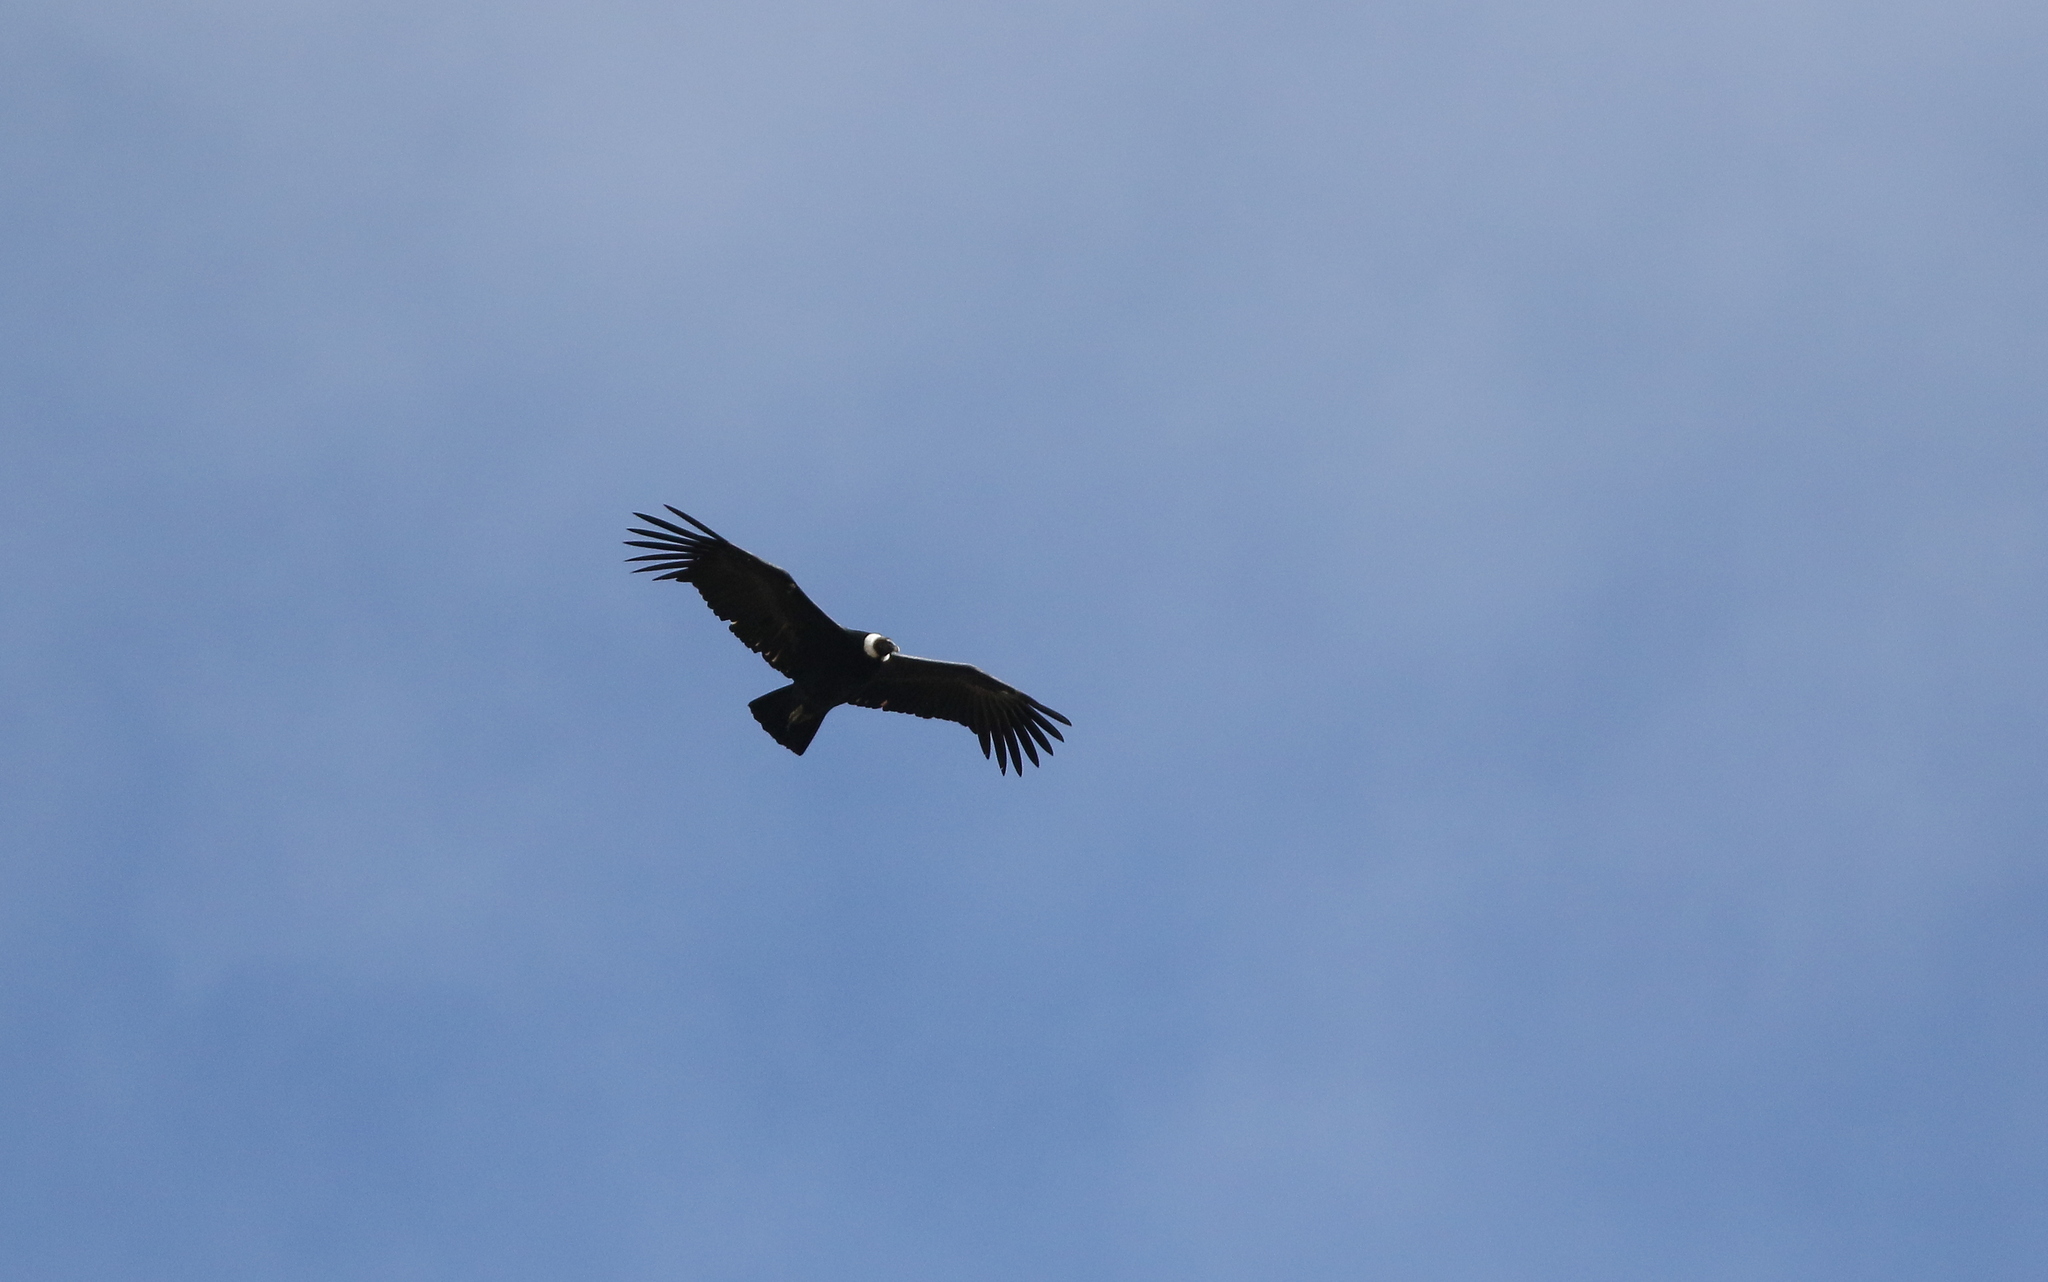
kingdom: Animalia
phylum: Chordata
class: Aves
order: Accipitriformes
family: Cathartidae
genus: Vultur
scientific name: Vultur gryphus
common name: Andean condor
